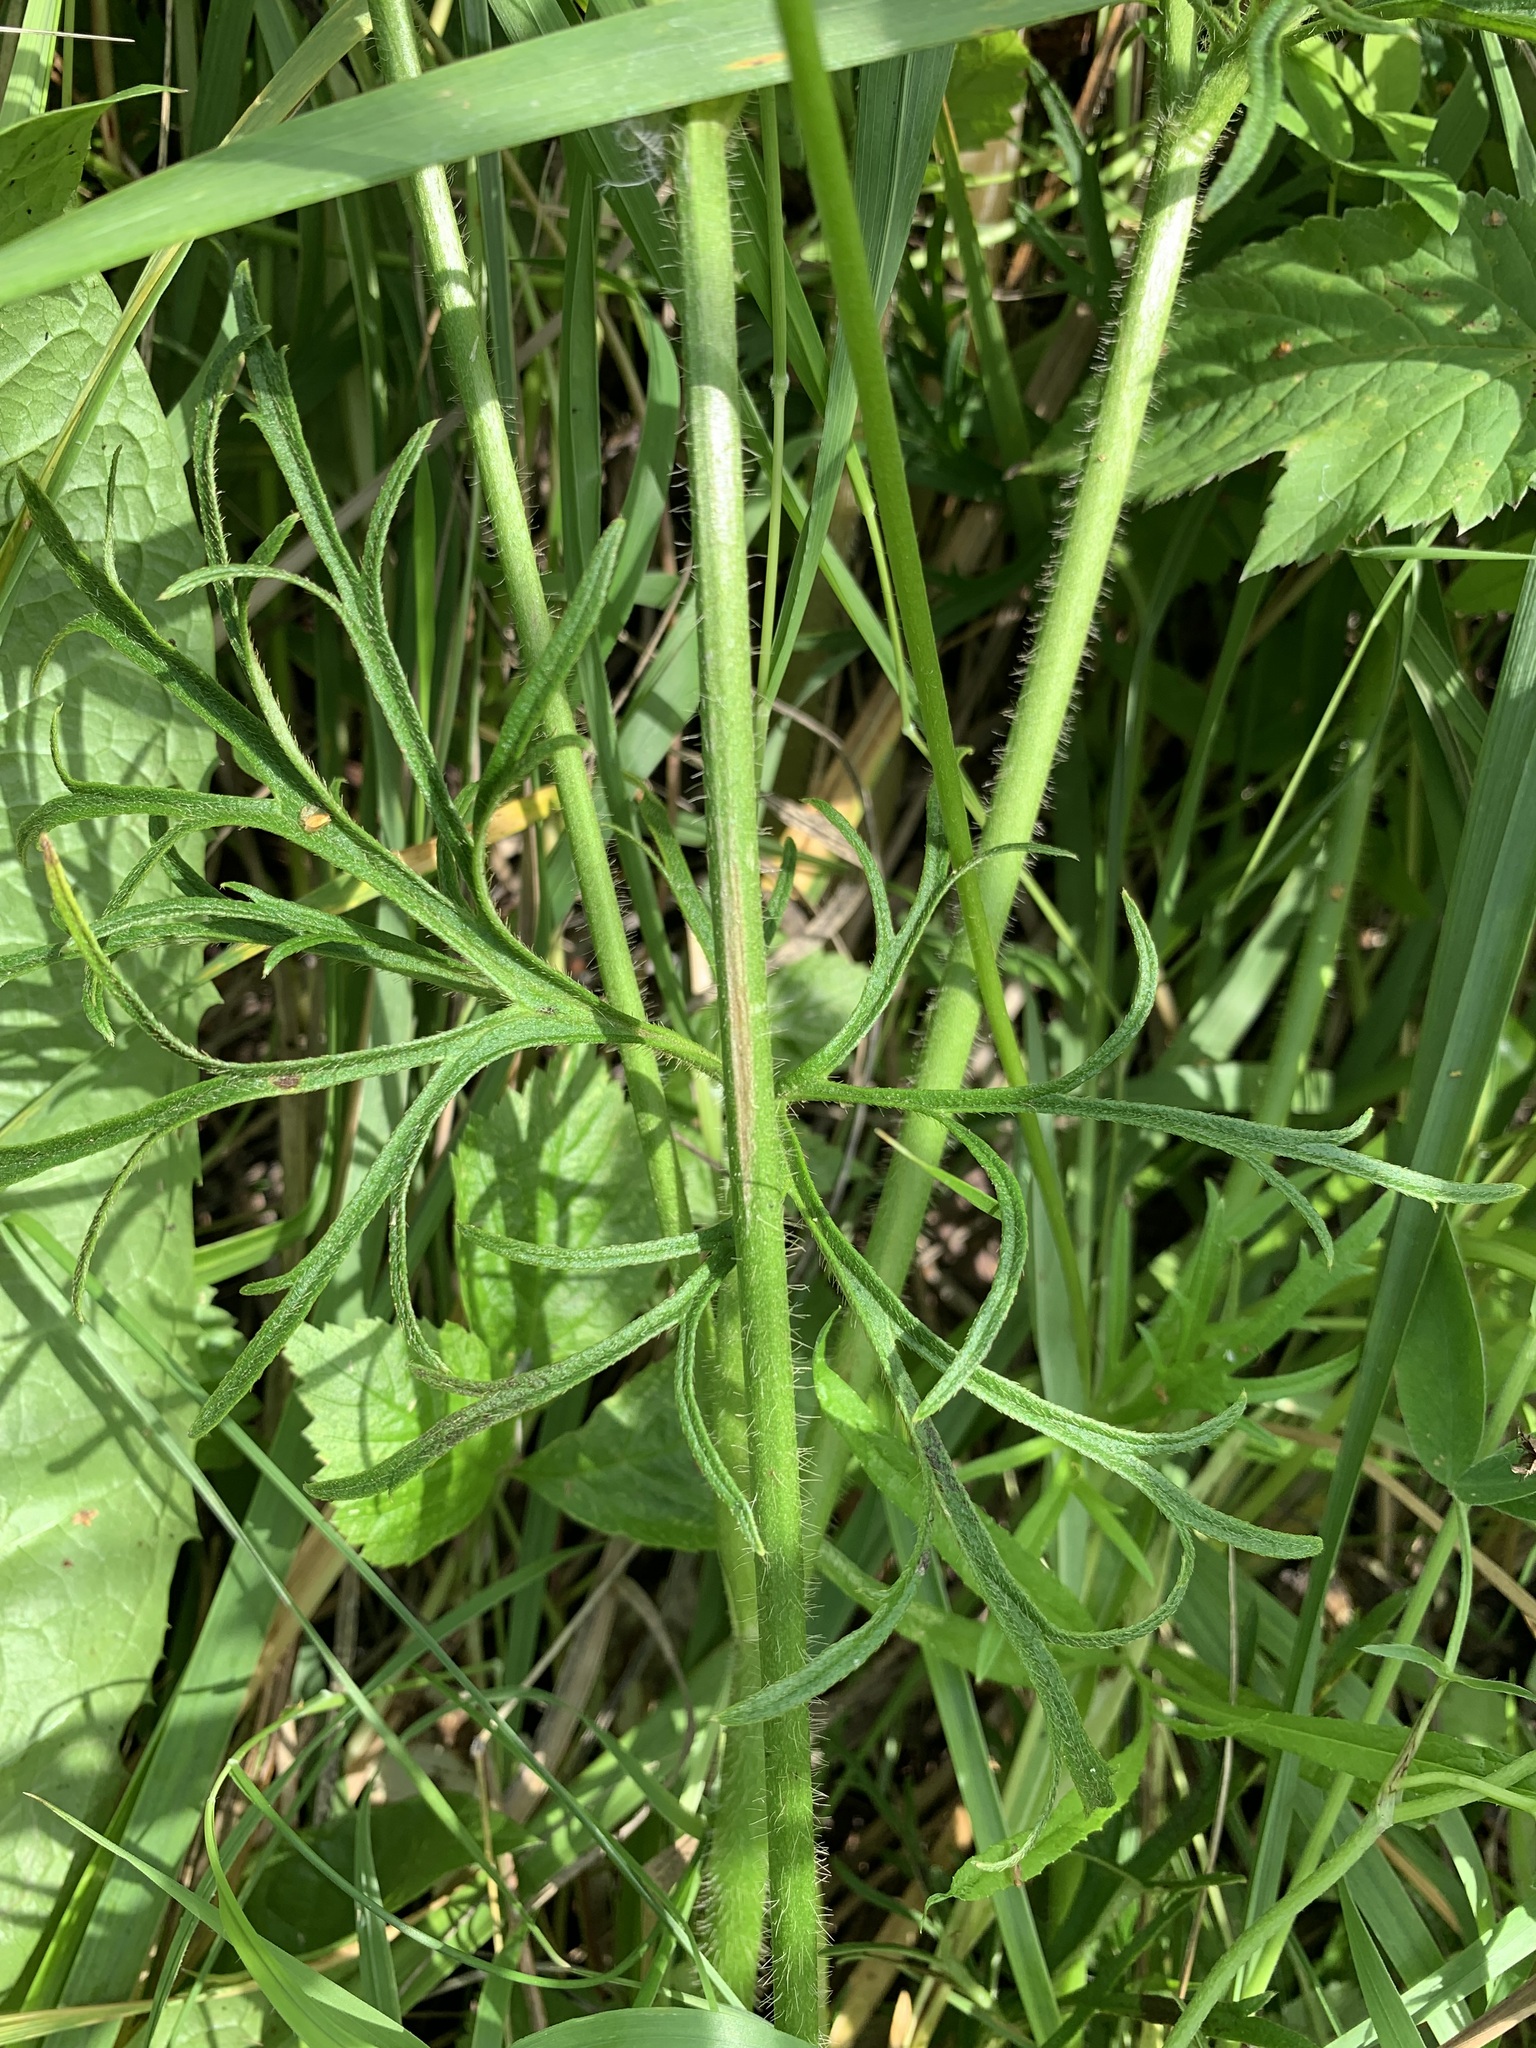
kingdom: Plantae
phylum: Tracheophyta
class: Magnoliopsida
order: Ranunculales
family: Ranunculaceae
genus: Ranunculus
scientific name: Ranunculus polyanthemos
